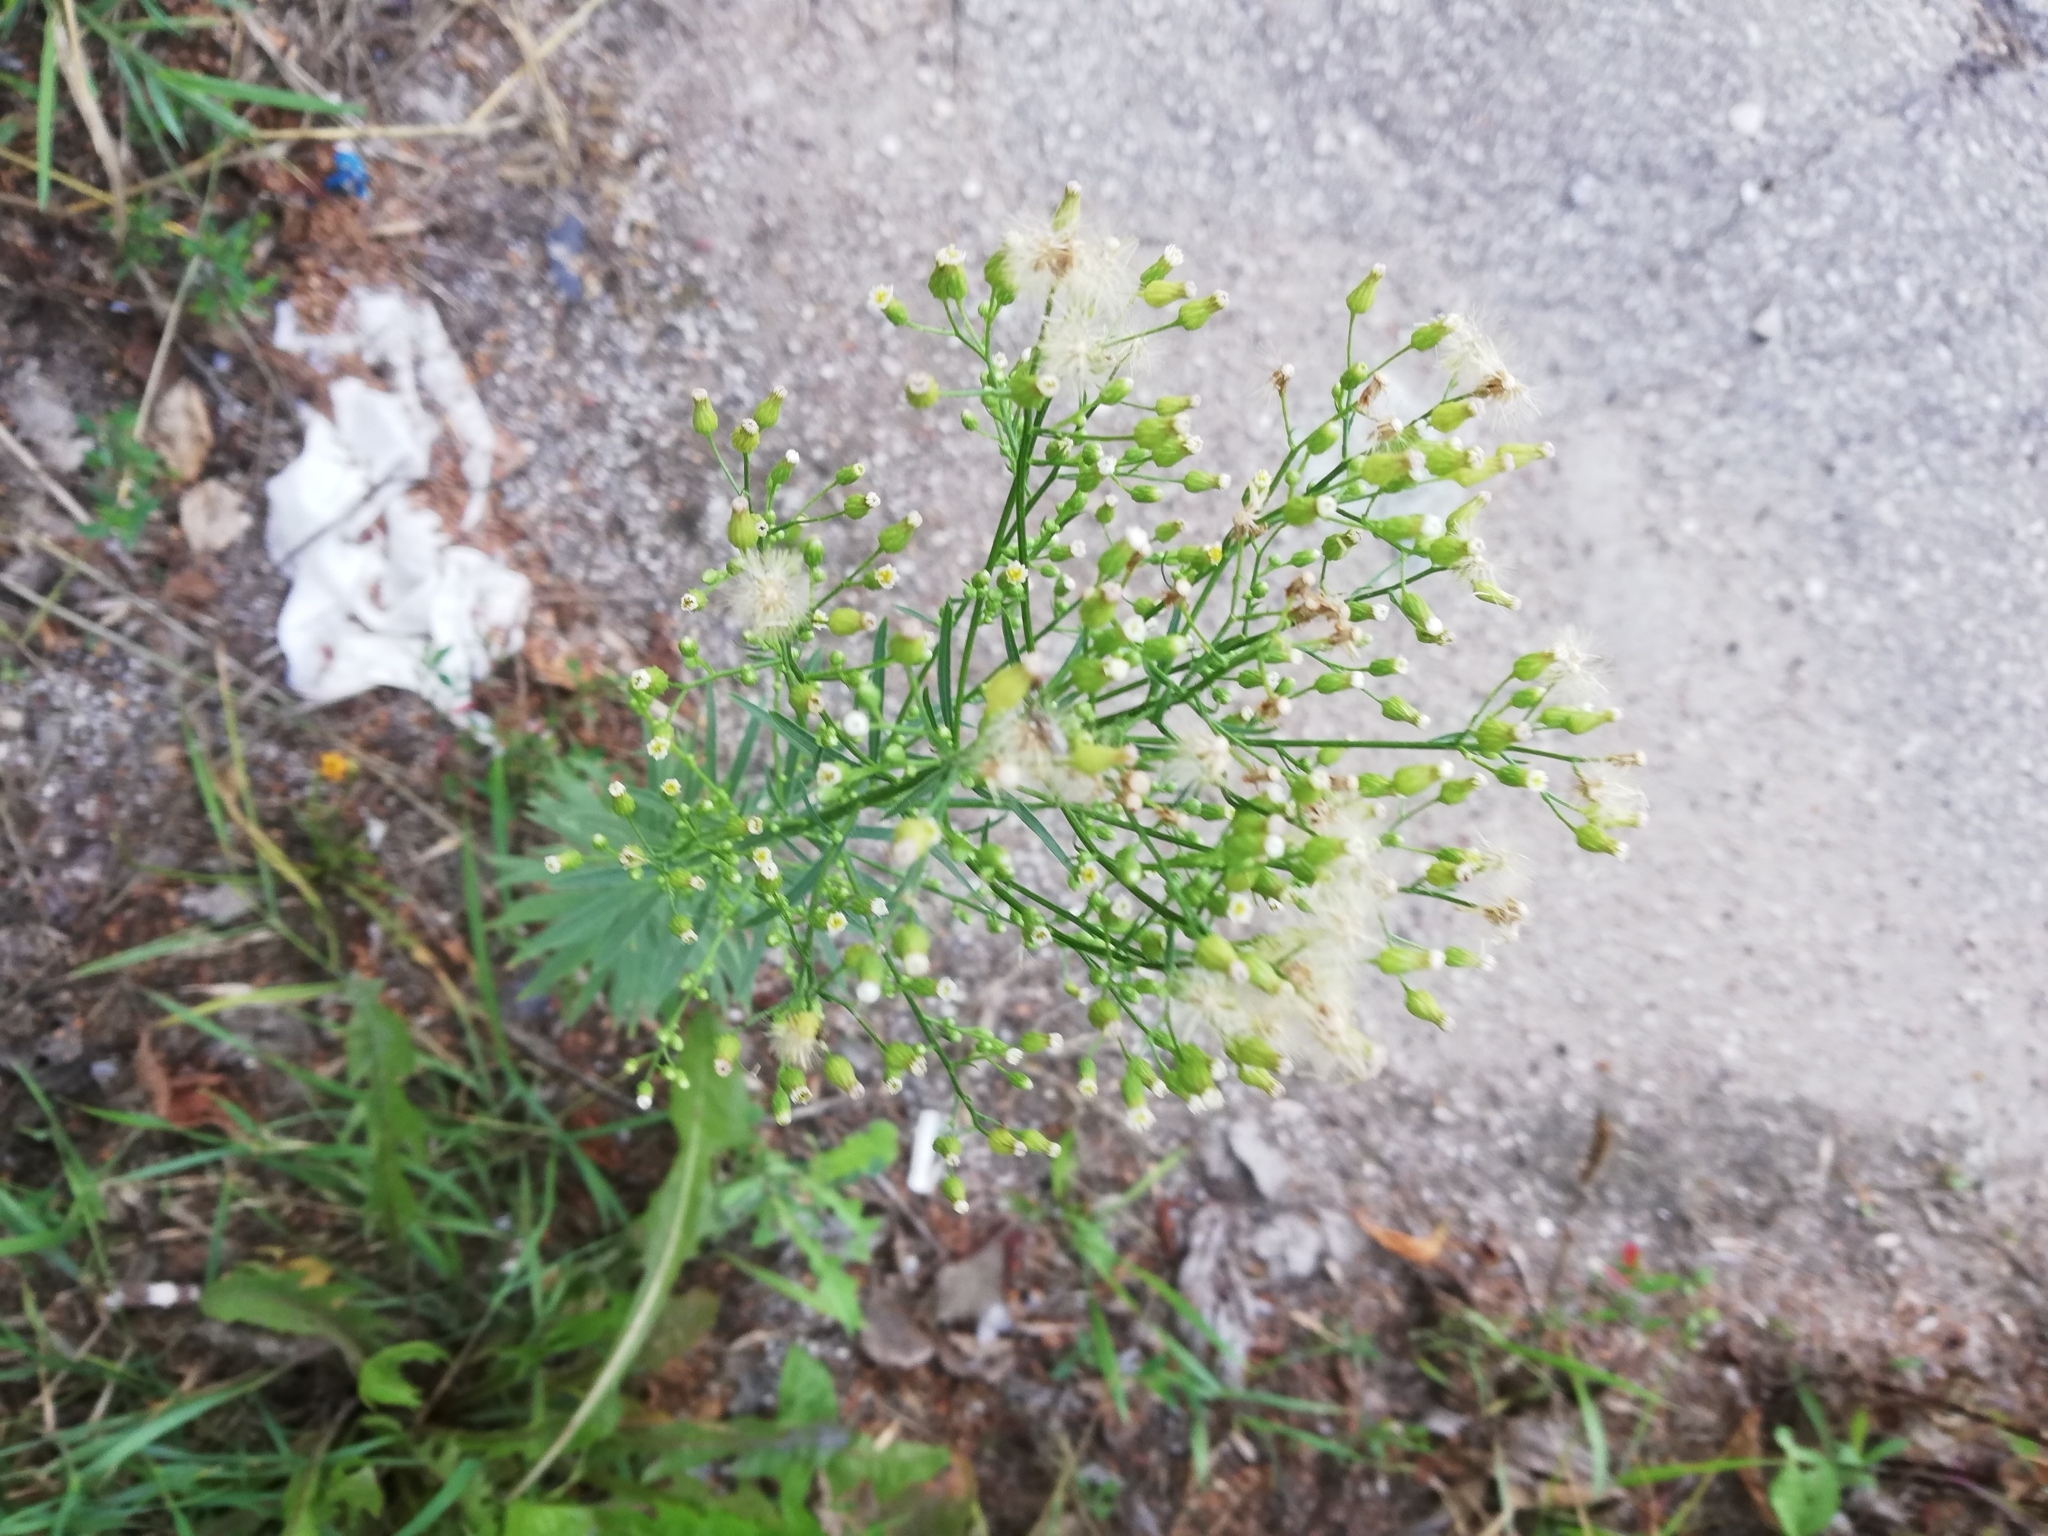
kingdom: Plantae
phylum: Tracheophyta
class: Magnoliopsida
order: Asterales
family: Asteraceae
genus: Erigeron
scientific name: Erigeron canadensis
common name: Canadian fleabane
